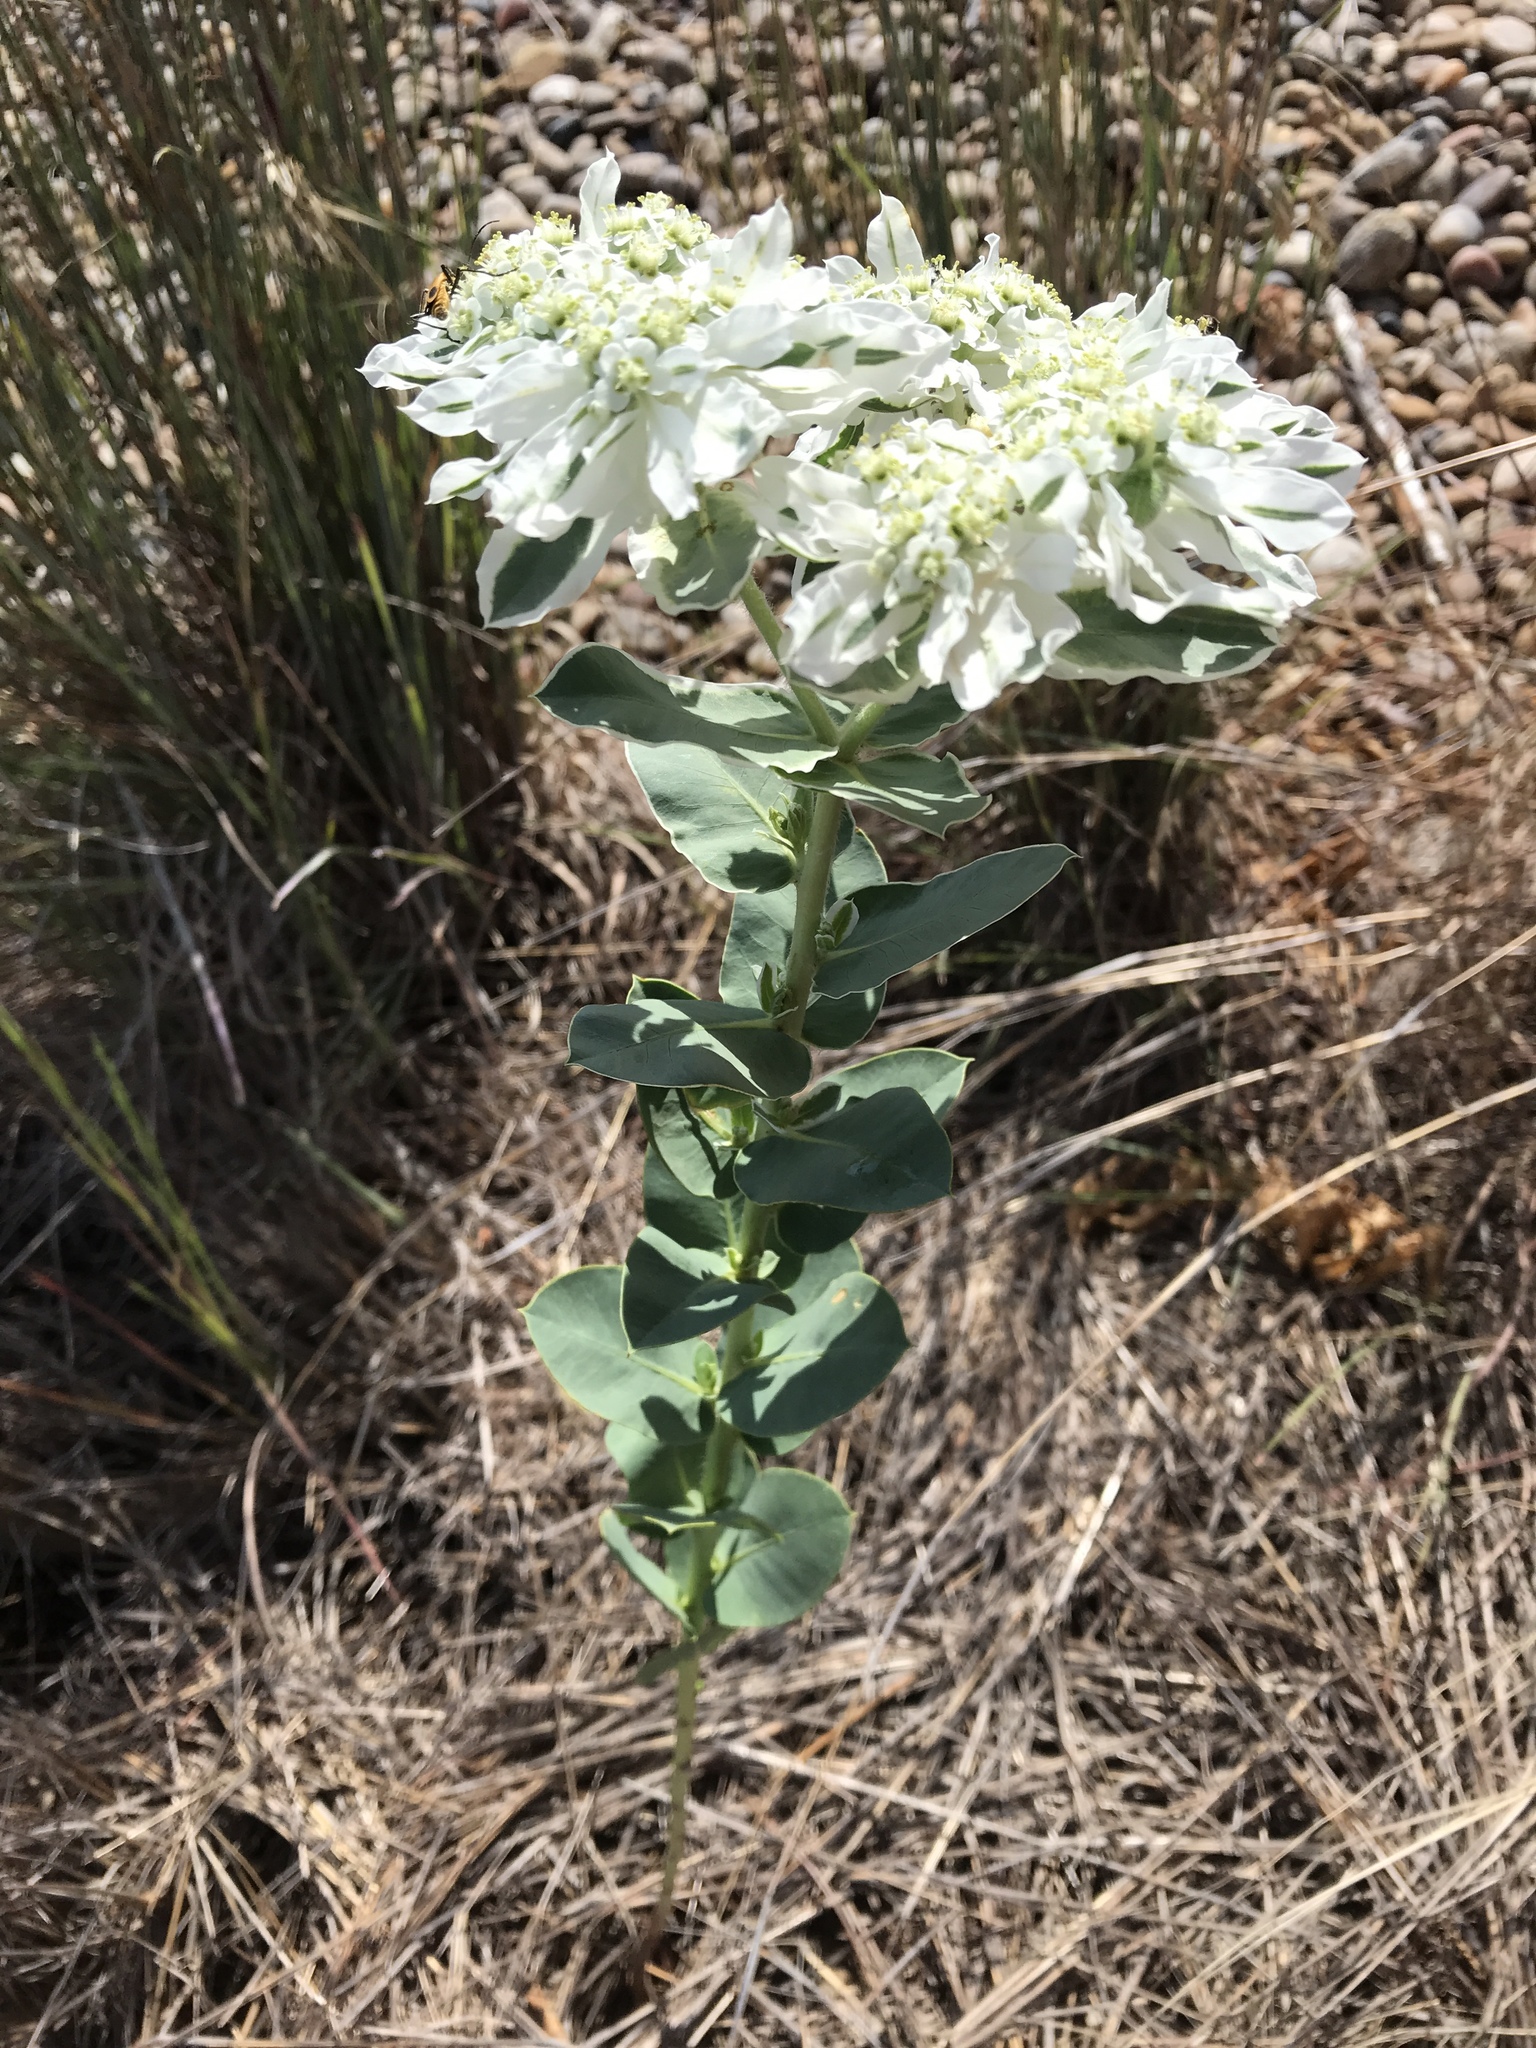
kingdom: Plantae
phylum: Tracheophyta
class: Magnoliopsida
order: Malpighiales
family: Euphorbiaceae
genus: Euphorbia
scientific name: Euphorbia marginata
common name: Ghostweed
